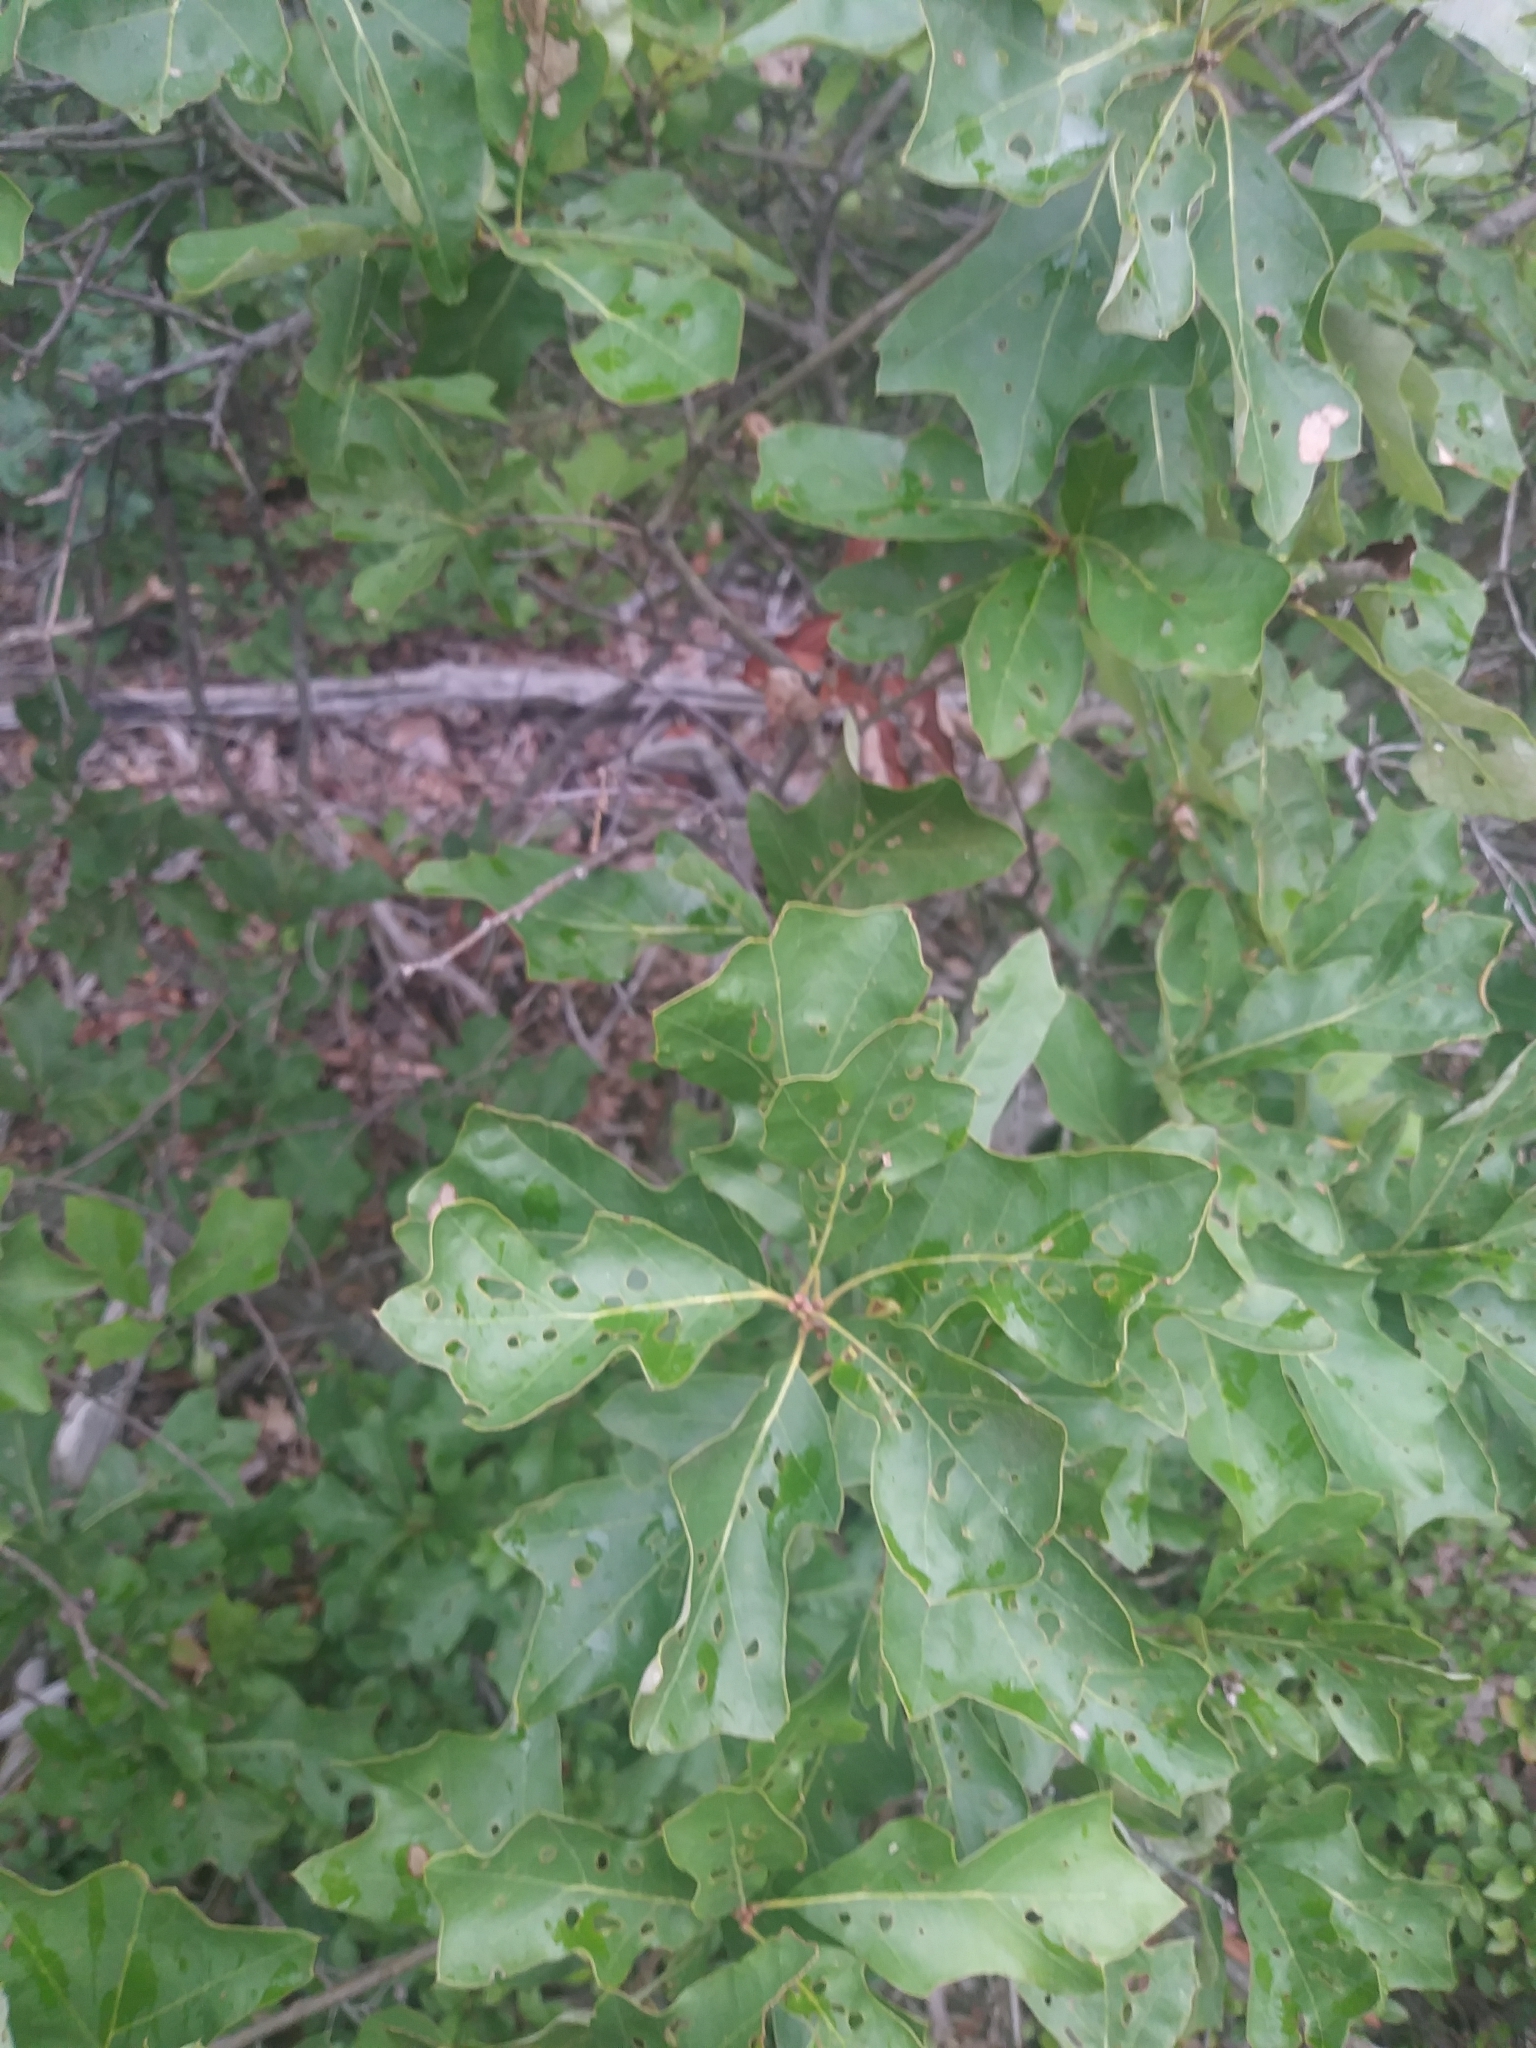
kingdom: Plantae
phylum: Tracheophyta
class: Magnoliopsida
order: Fagales
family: Fagaceae
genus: Quercus
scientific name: Quercus ilicifolia
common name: Bear oak
